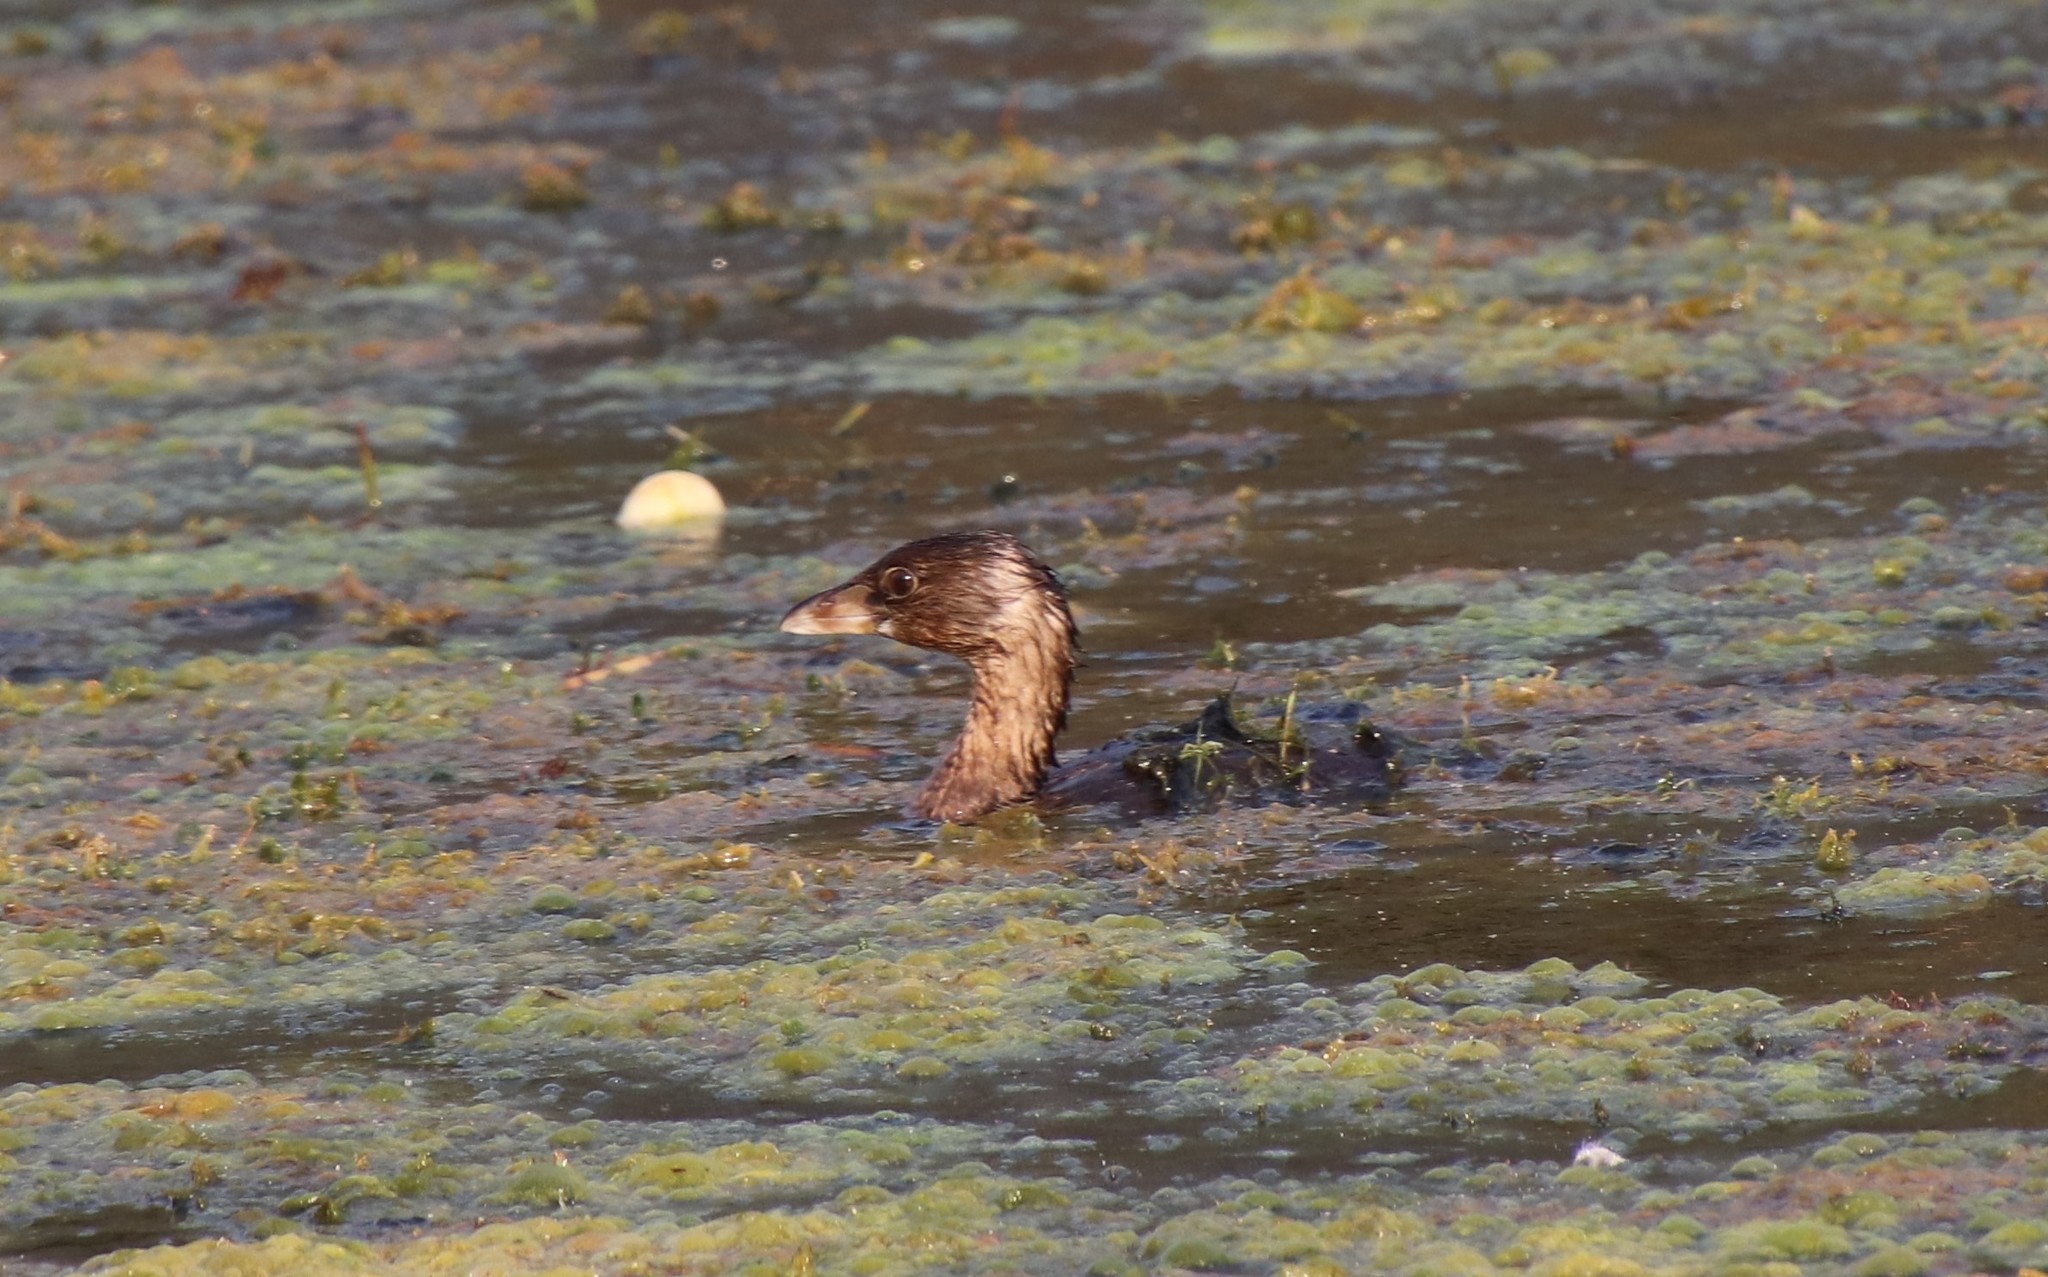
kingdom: Animalia
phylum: Chordata
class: Aves
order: Podicipediformes
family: Podicipedidae
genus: Podilymbus
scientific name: Podilymbus podiceps
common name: Pied-billed grebe
